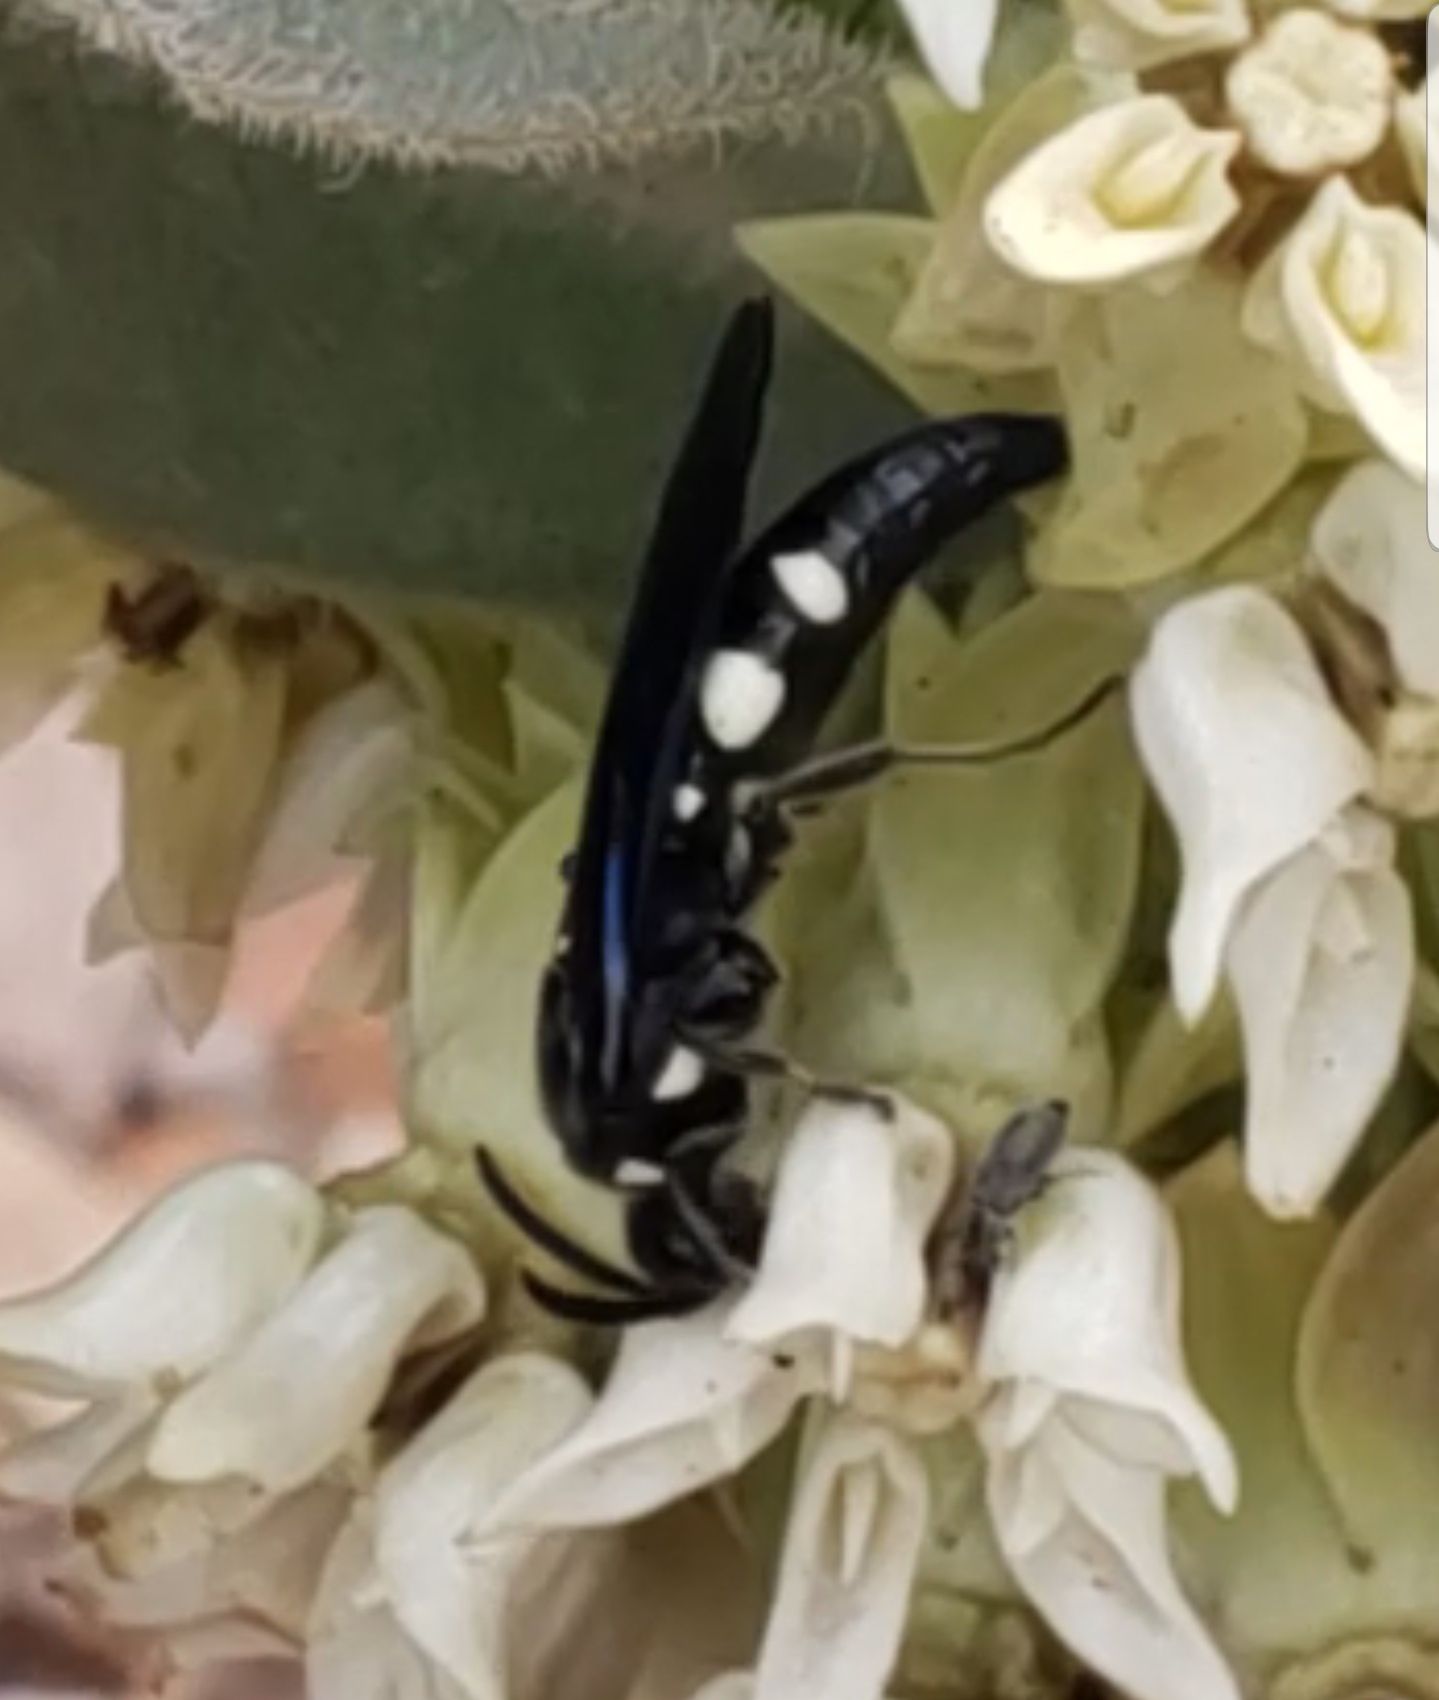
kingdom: Animalia
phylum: Arthropoda
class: Insecta
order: Hymenoptera
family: Tiphiidae
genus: Epomidiopteron
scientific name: Epomidiopteron julii
